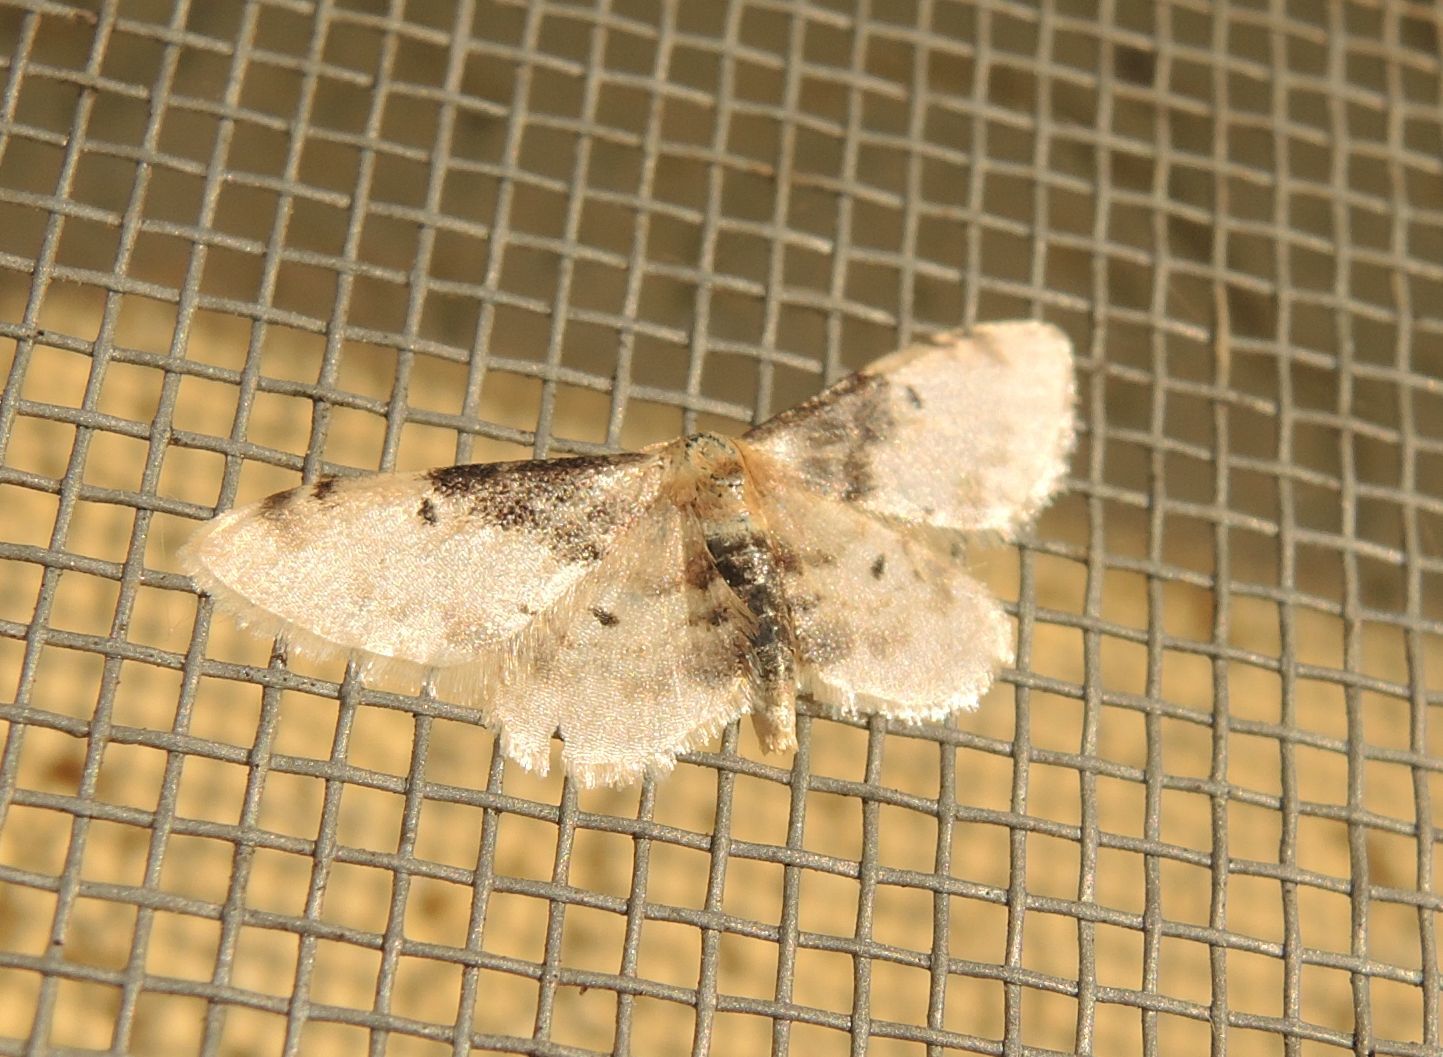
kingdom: Animalia
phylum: Arthropoda
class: Insecta
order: Lepidoptera
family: Geometridae
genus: Idaea
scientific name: Idaea filicata
